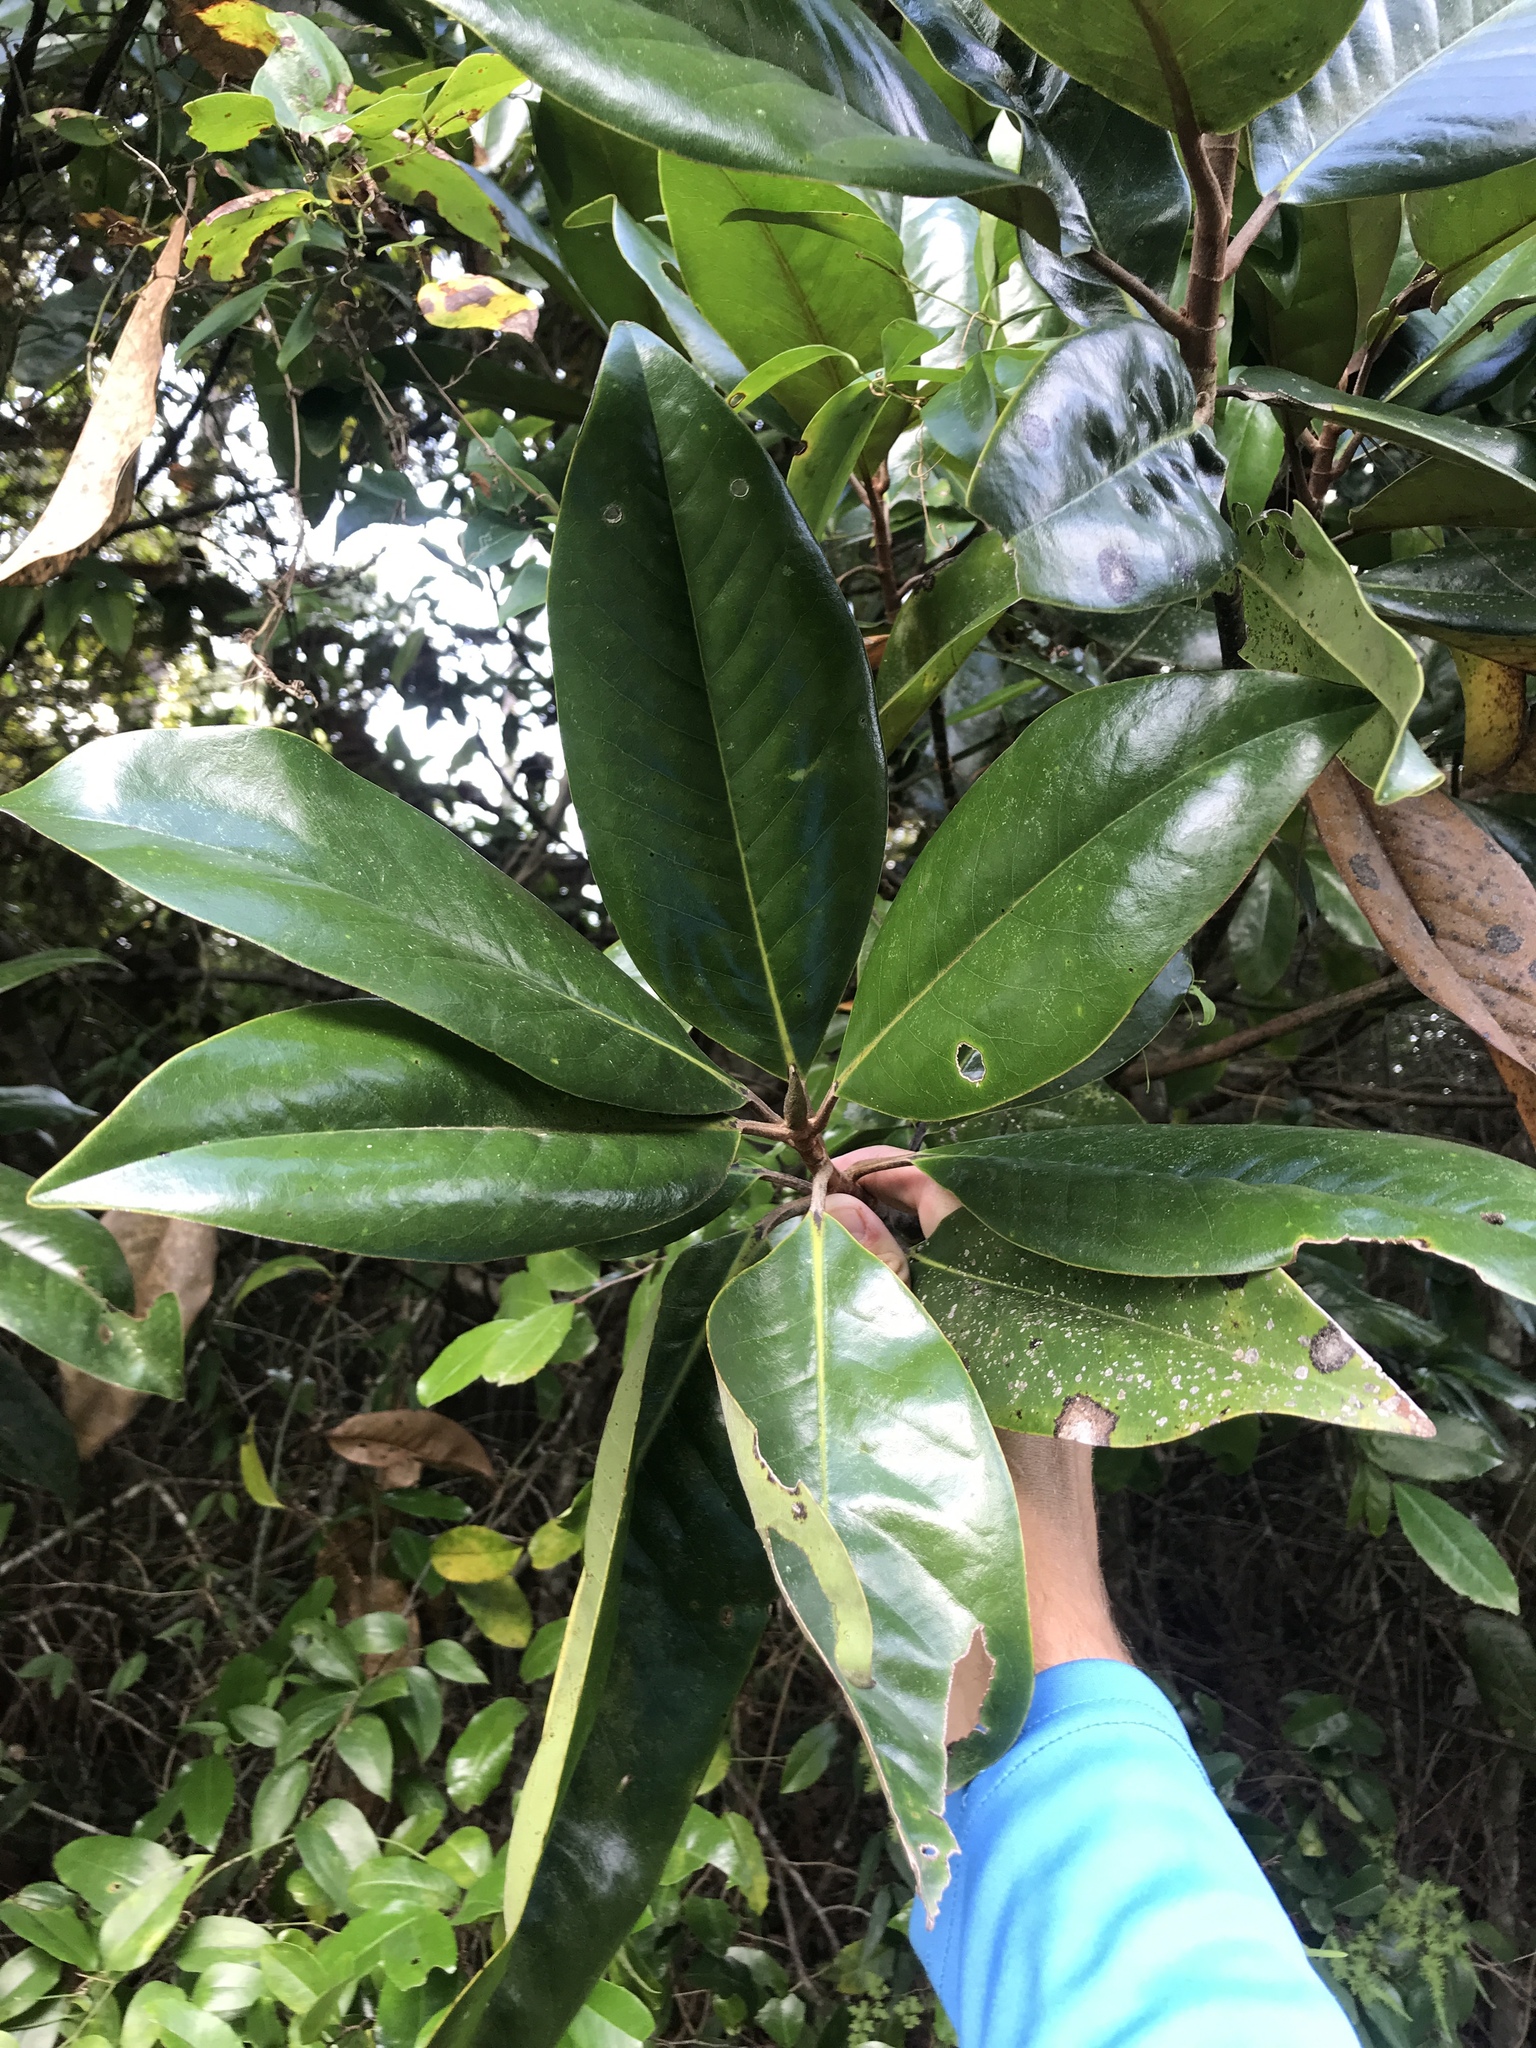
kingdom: Plantae
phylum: Tracheophyta
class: Magnoliopsida
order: Magnoliales
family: Magnoliaceae
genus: Magnolia
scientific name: Magnolia grandiflora
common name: Southern magnolia
